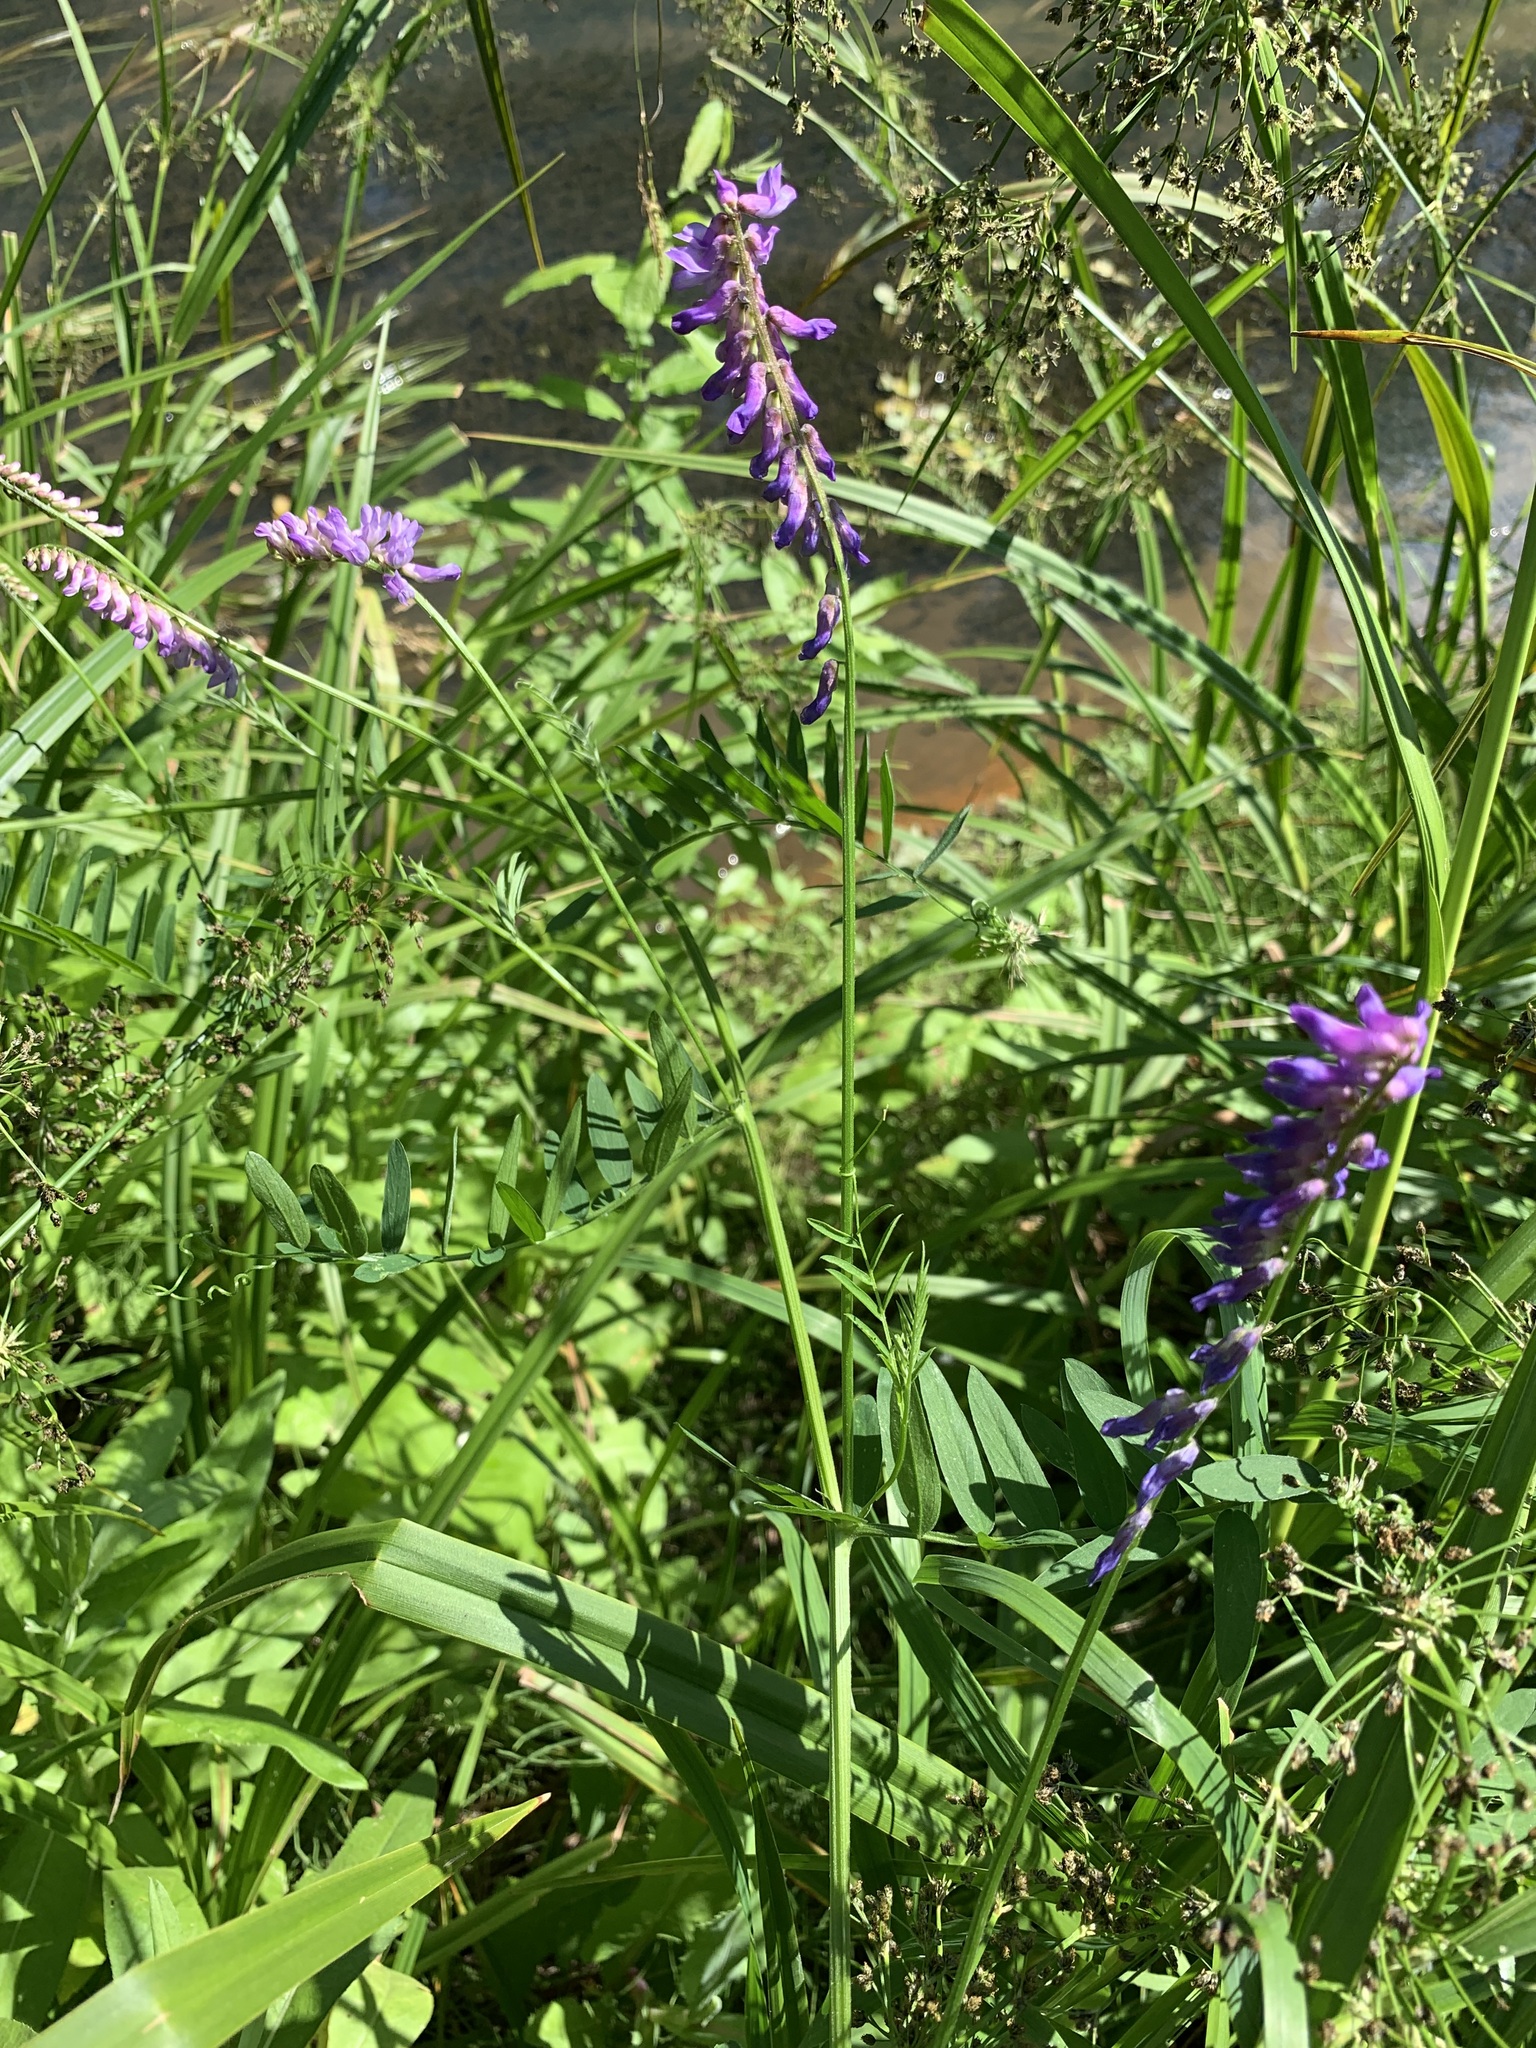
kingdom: Plantae
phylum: Tracheophyta
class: Magnoliopsida
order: Fabales
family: Fabaceae
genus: Vicia
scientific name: Vicia tenuifolia
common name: Fine-leaved vetch
